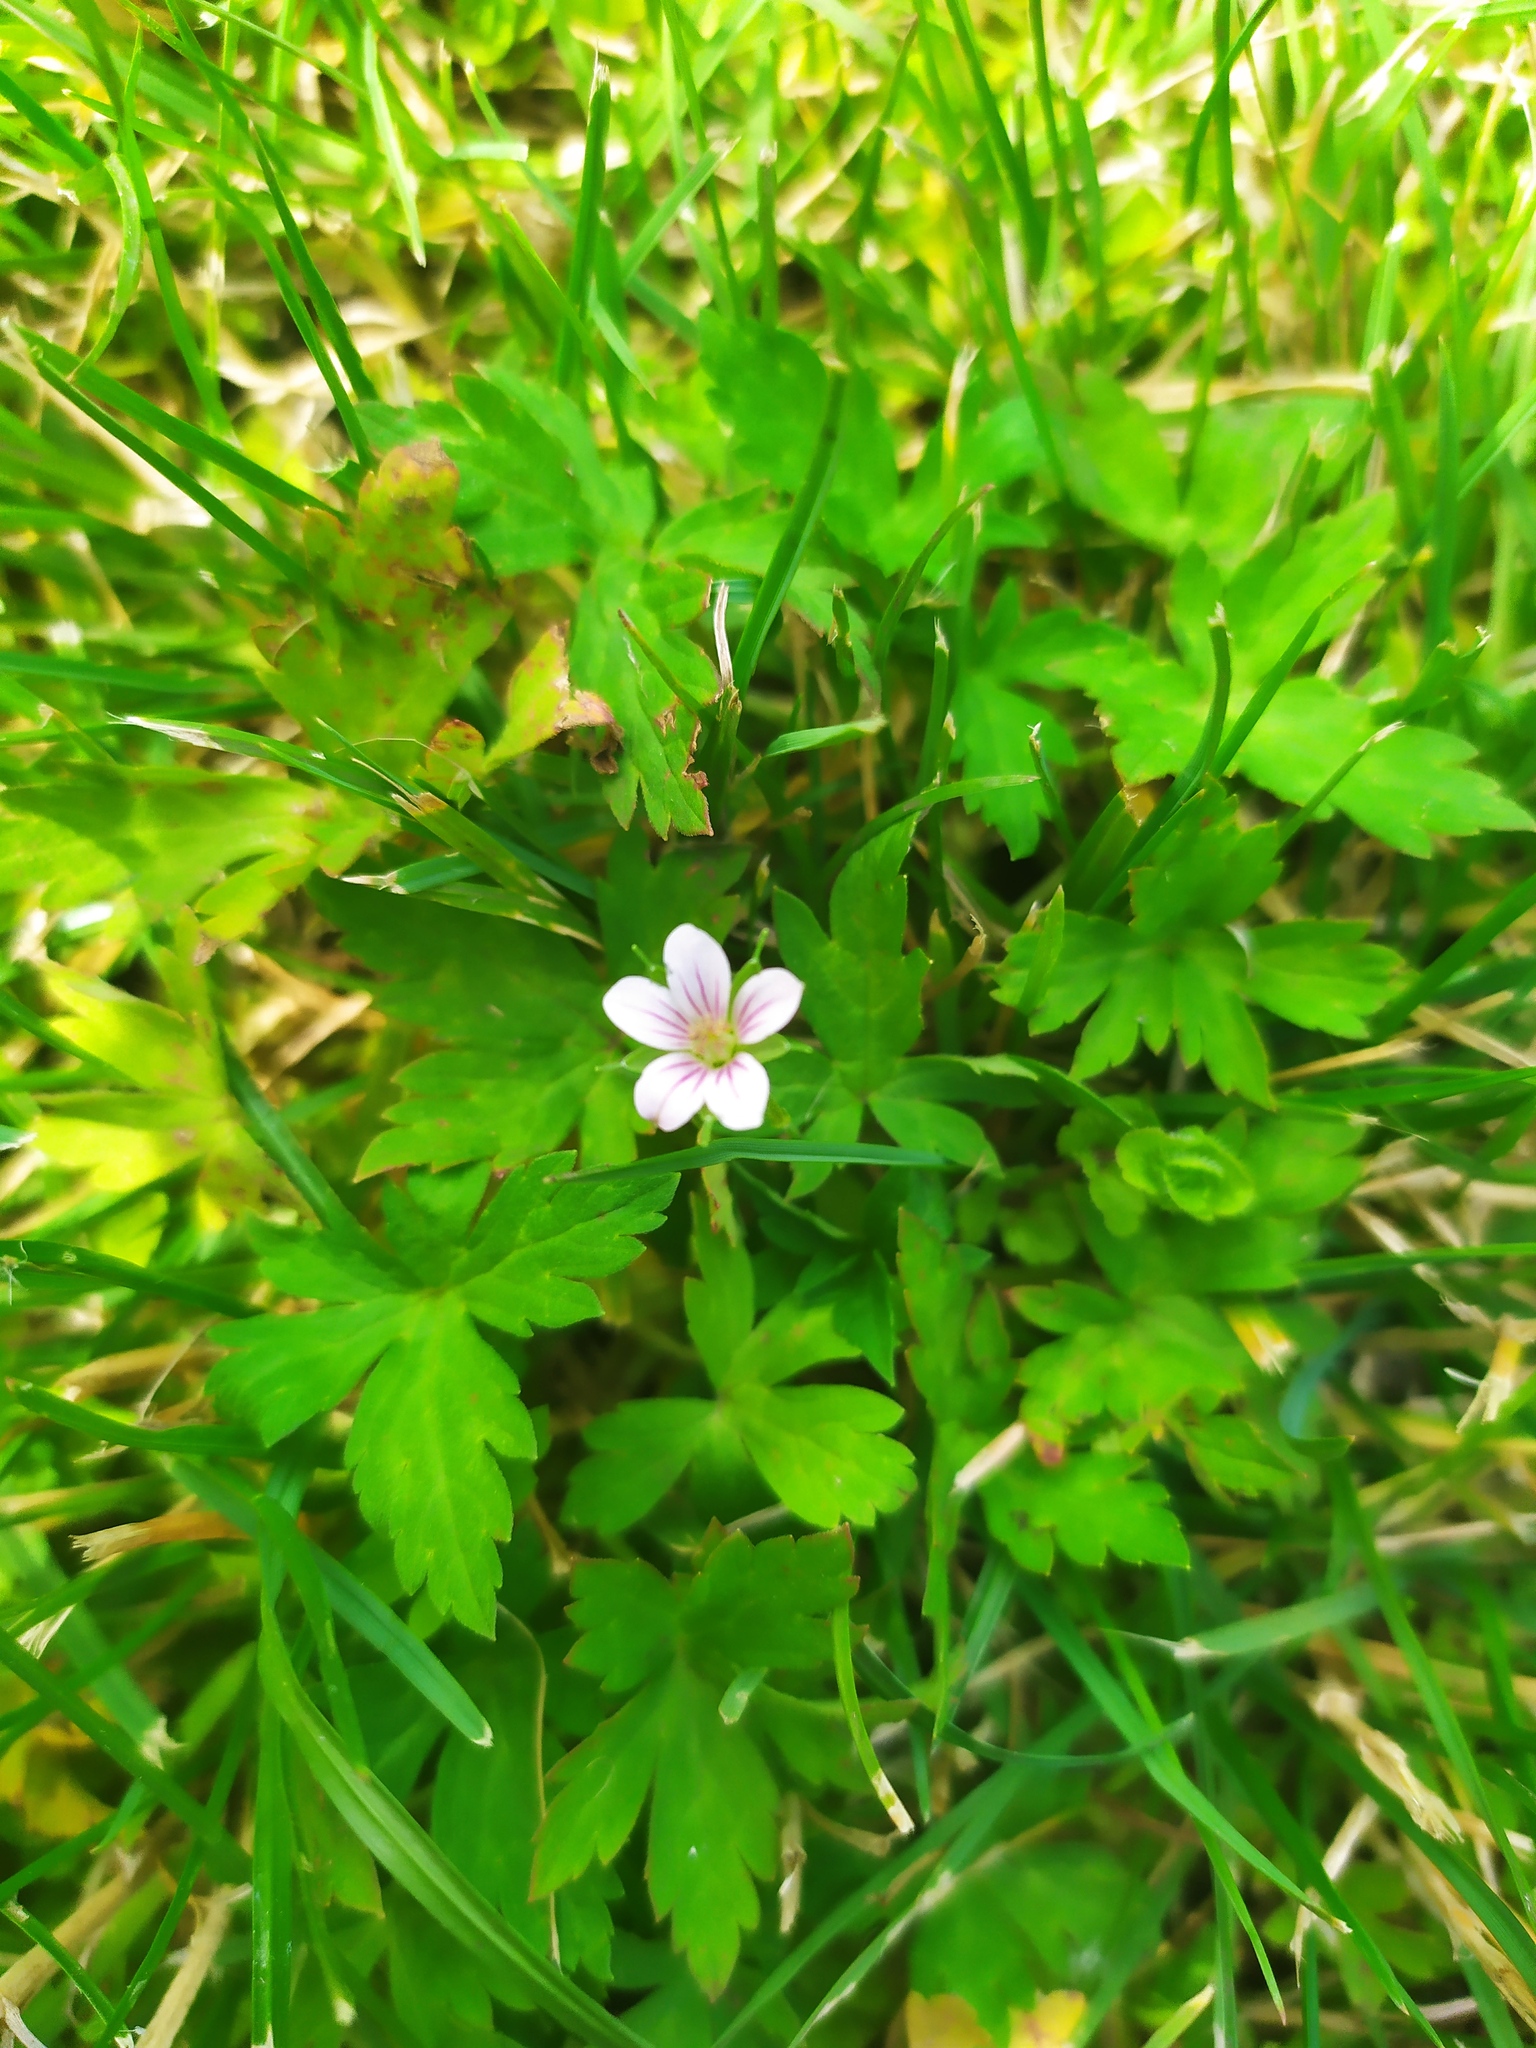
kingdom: Plantae
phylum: Tracheophyta
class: Magnoliopsida
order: Geraniales
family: Geraniaceae
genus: Geranium
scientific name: Geranium sibiricum
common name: Siberian crane's-bill
